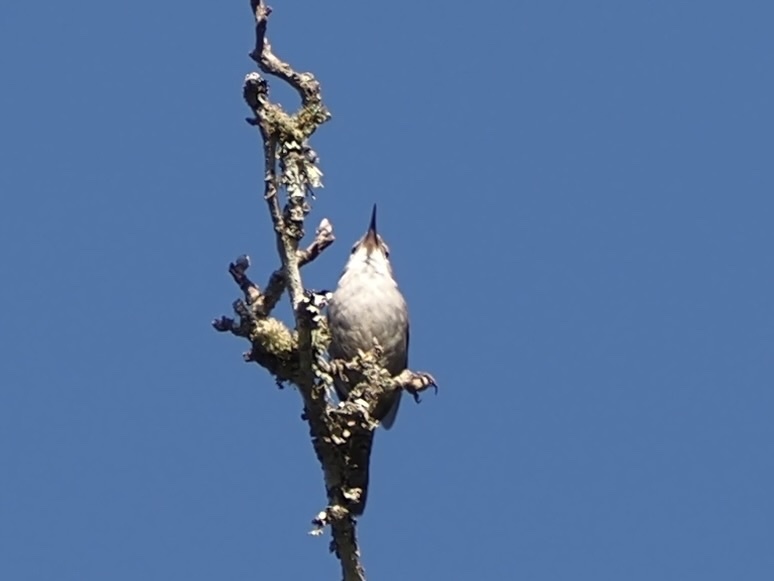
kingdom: Animalia
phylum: Chordata
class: Aves
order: Passeriformes
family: Troglodytidae
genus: Thryomanes
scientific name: Thryomanes bewickii
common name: Bewick's wren
